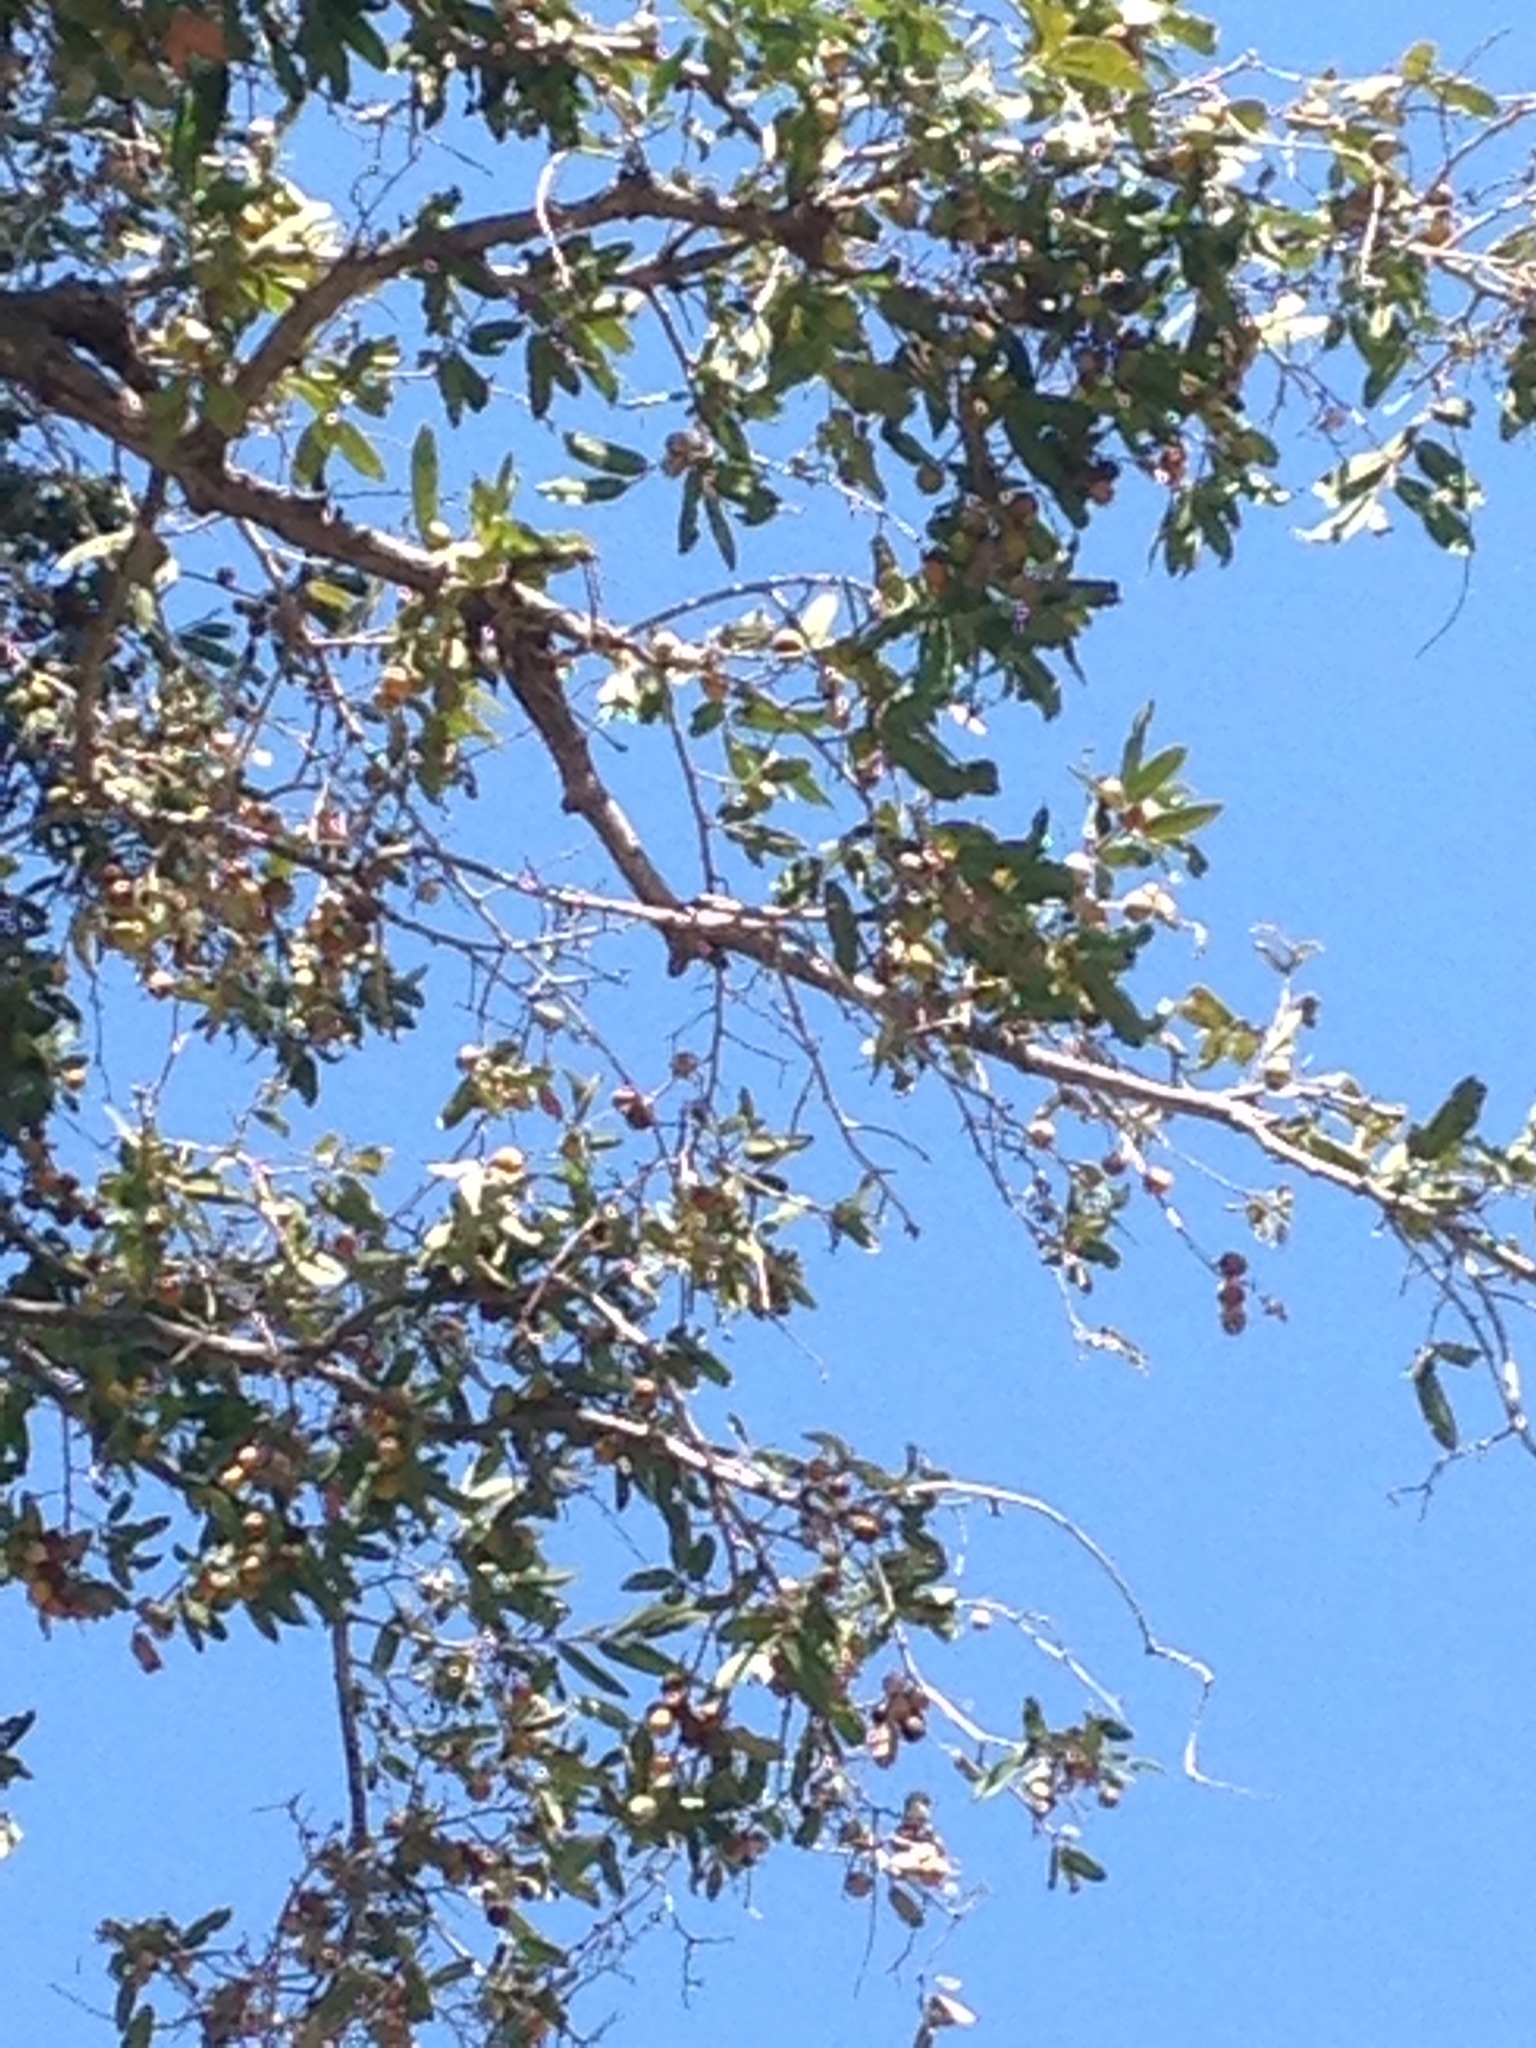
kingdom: Plantae
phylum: Tracheophyta
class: Magnoliopsida
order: Ericales
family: Ebenaceae
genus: Diospyros
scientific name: Diospyros mespiliformis
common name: Ebony diospyros
